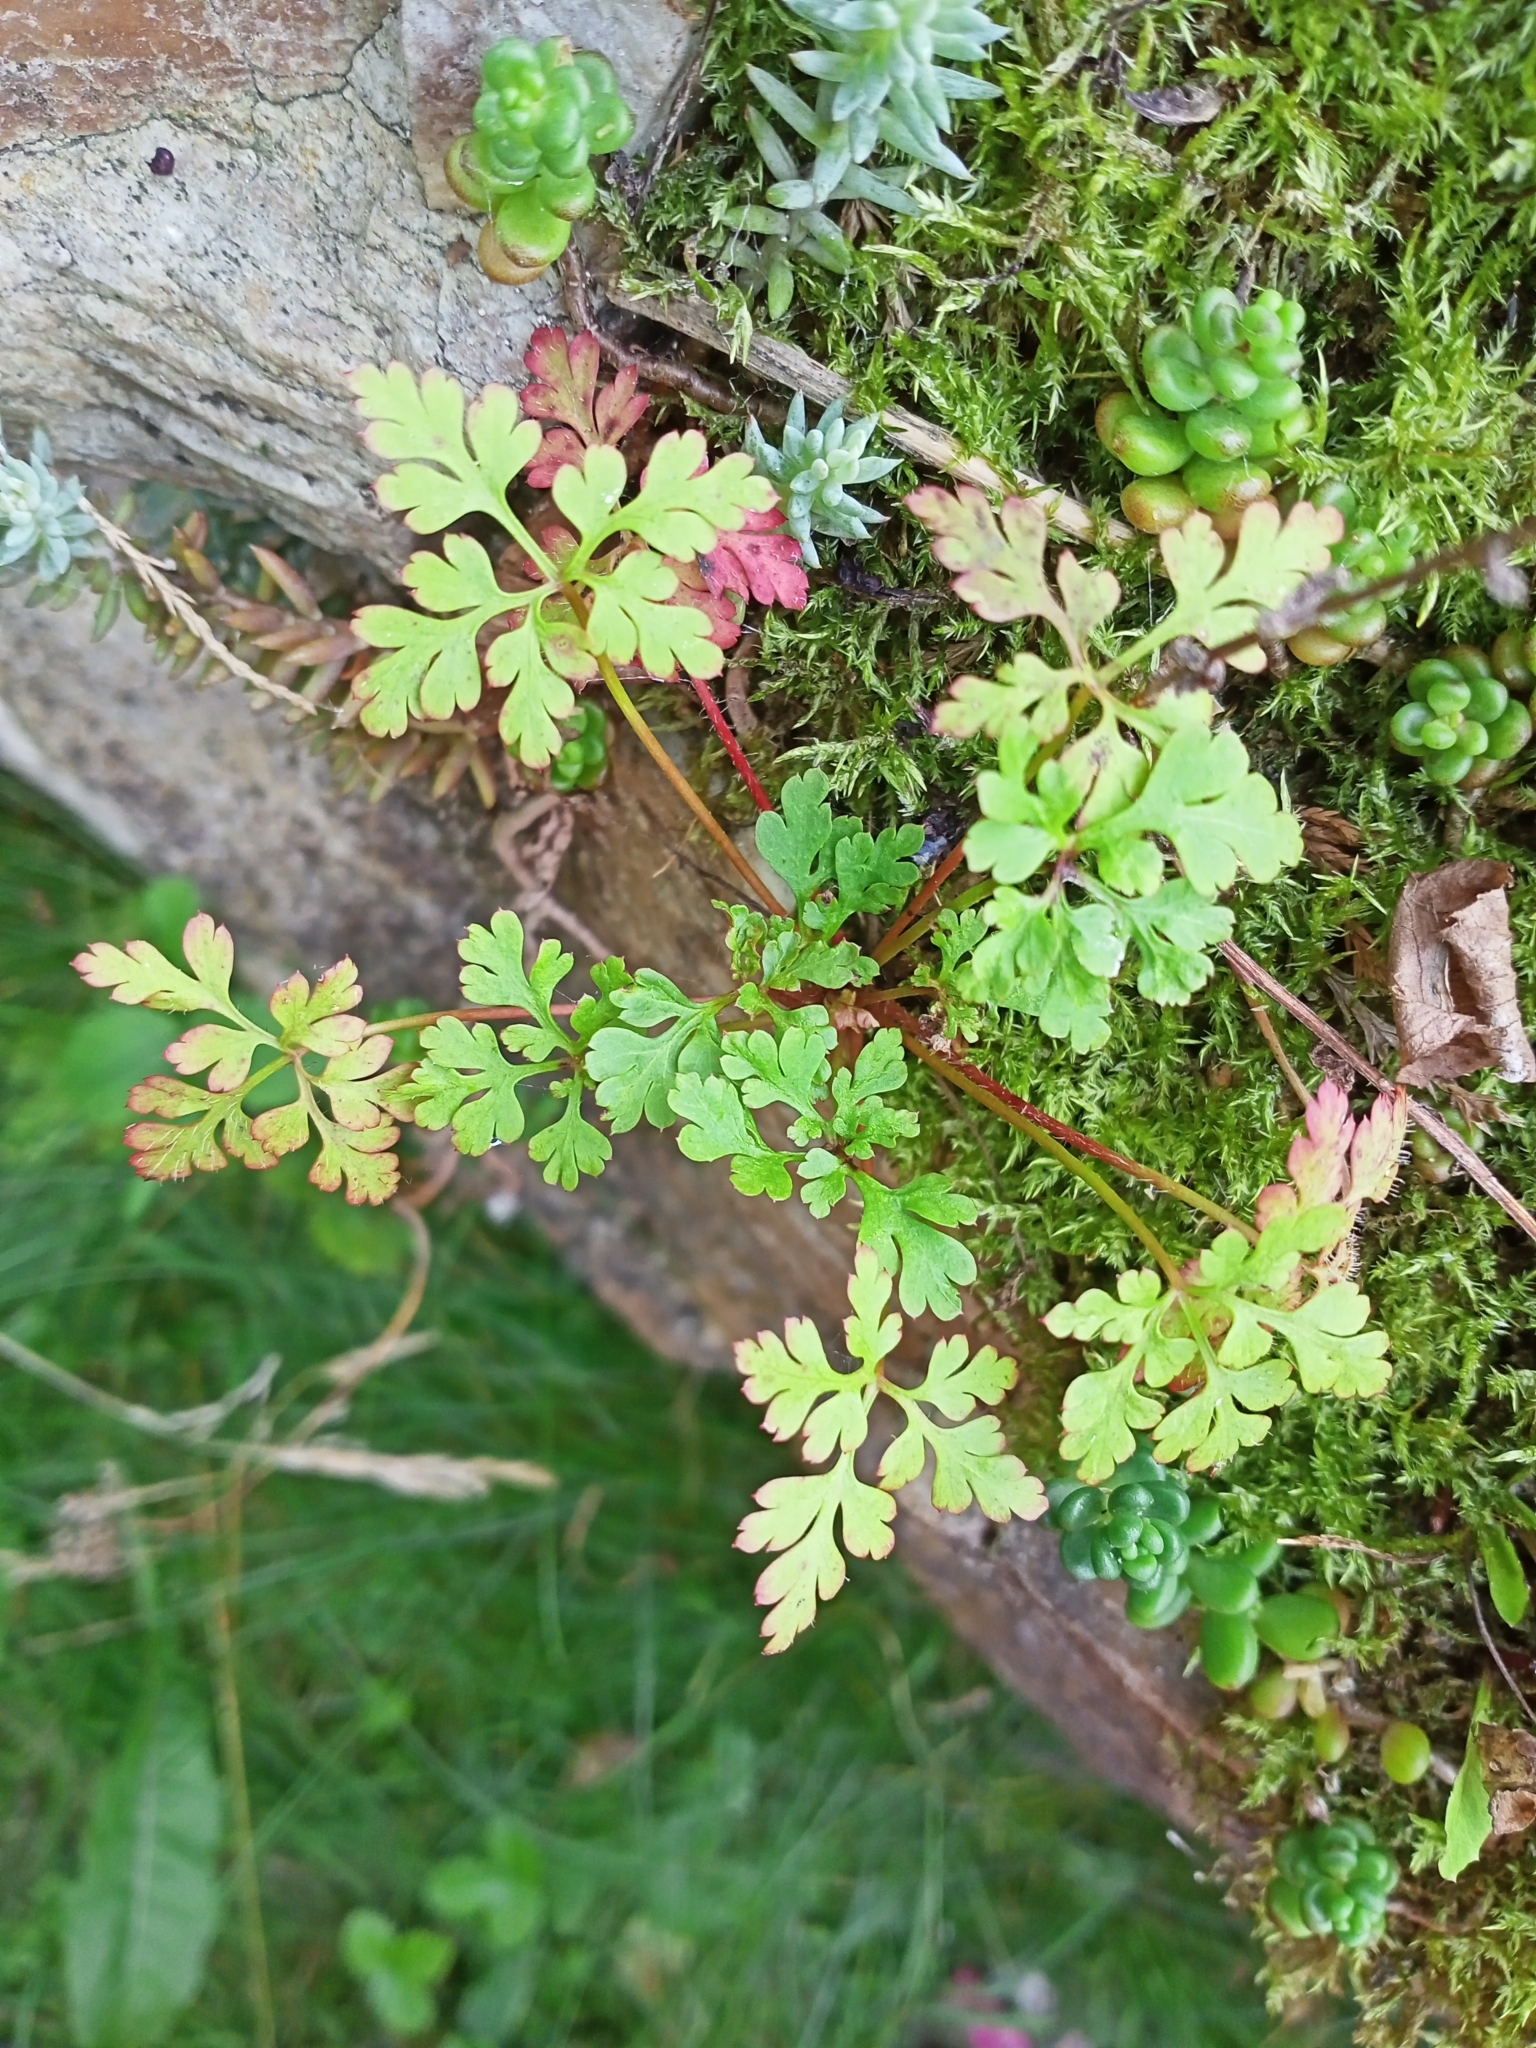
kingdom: Plantae
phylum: Tracheophyta
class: Magnoliopsida
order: Geraniales
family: Geraniaceae
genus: Geranium
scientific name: Geranium robertianum
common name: Herb-robert
